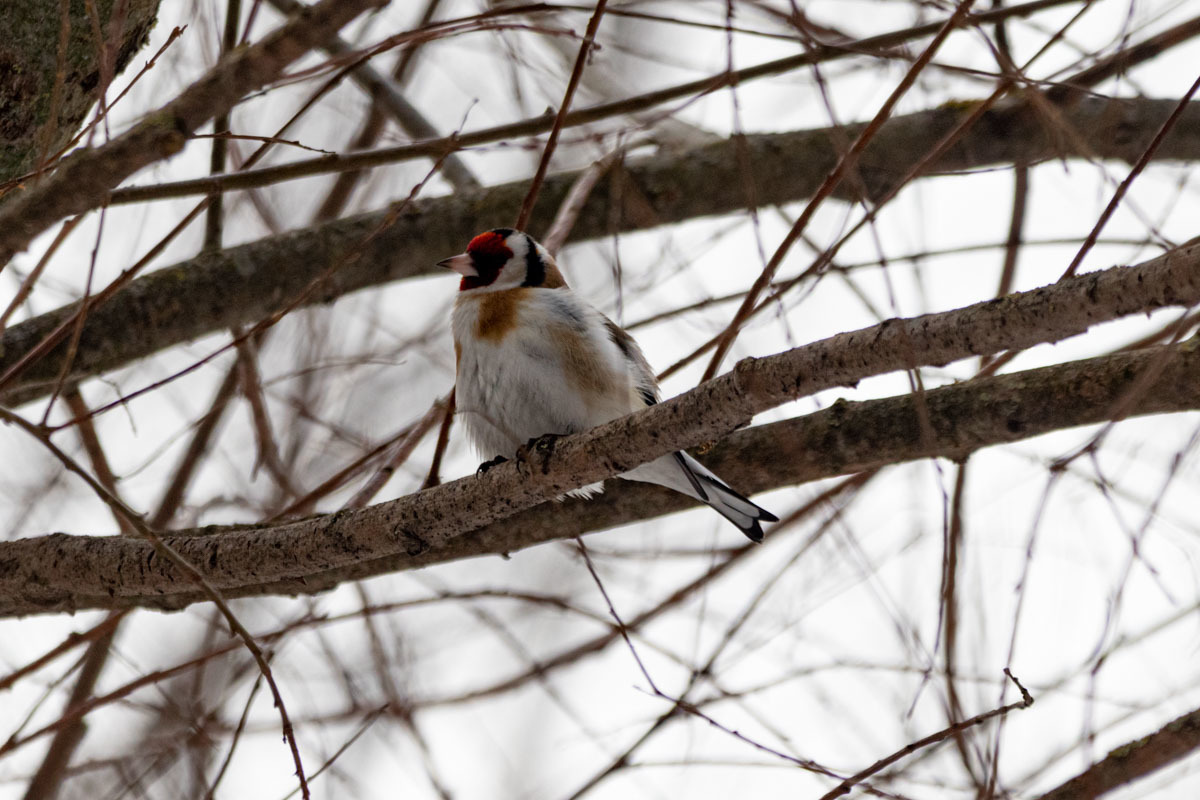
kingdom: Animalia
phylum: Chordata
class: Aves
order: Passeriformes
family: Fringillidae
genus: Carduelis
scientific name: Carduelis carduelis
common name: European goldfinch
